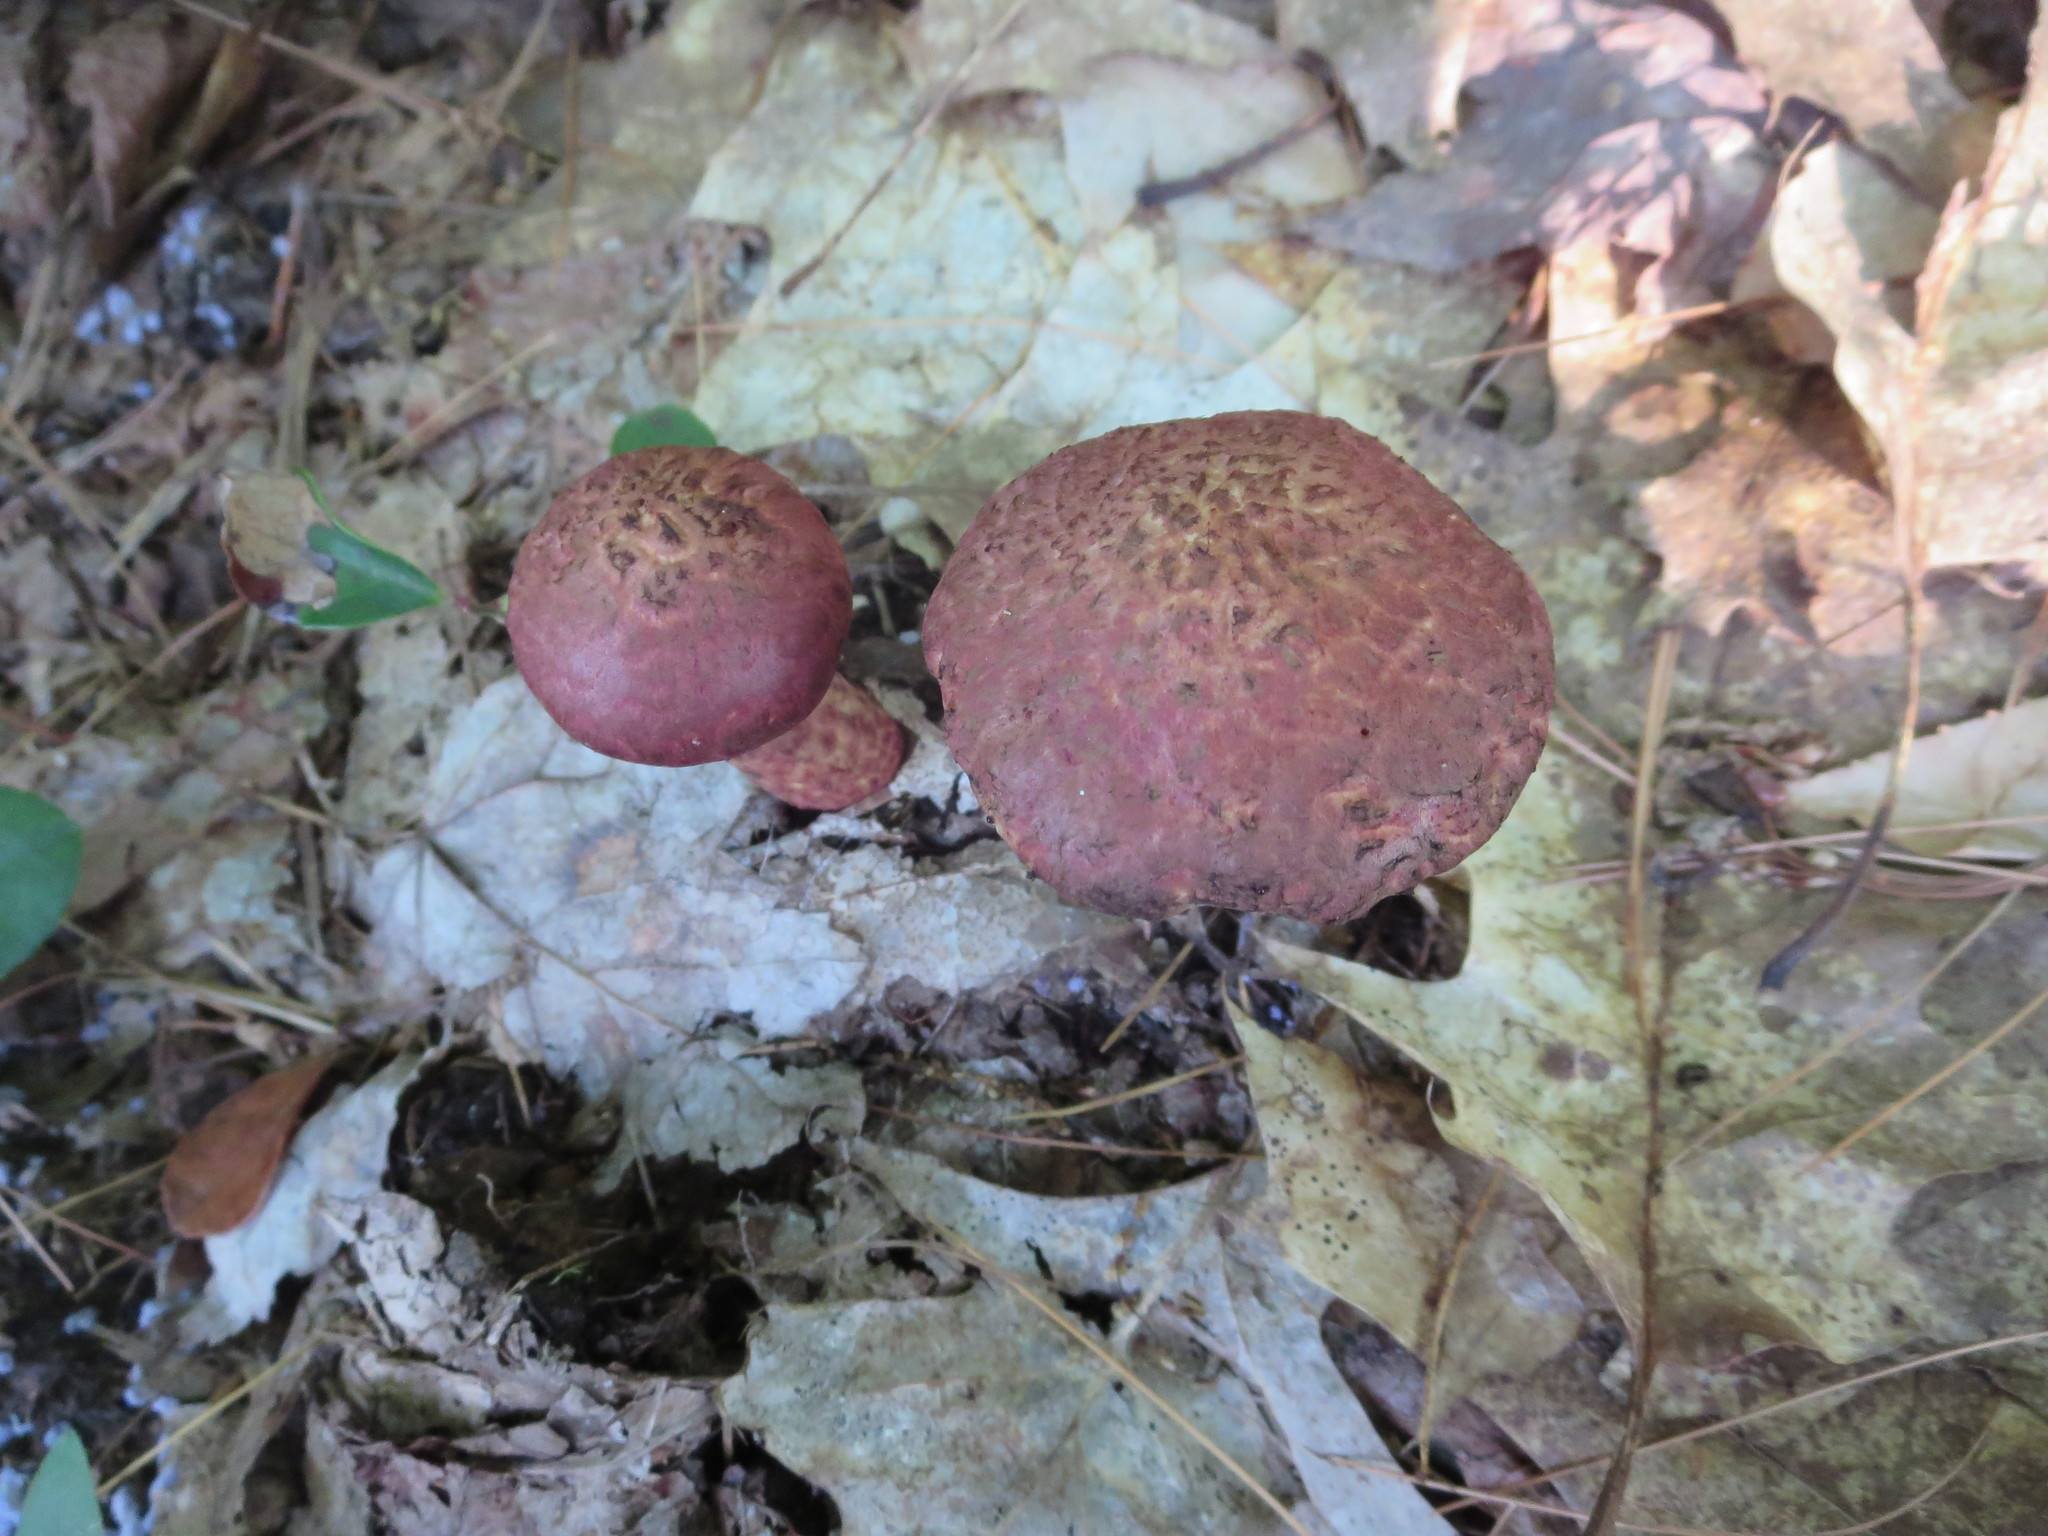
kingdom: Fungi
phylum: Basidiomycota
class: Agaricomycetes
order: Boletales
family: Suillaceae
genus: Suillus
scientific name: Suillus spraguei
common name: Painted suillus
